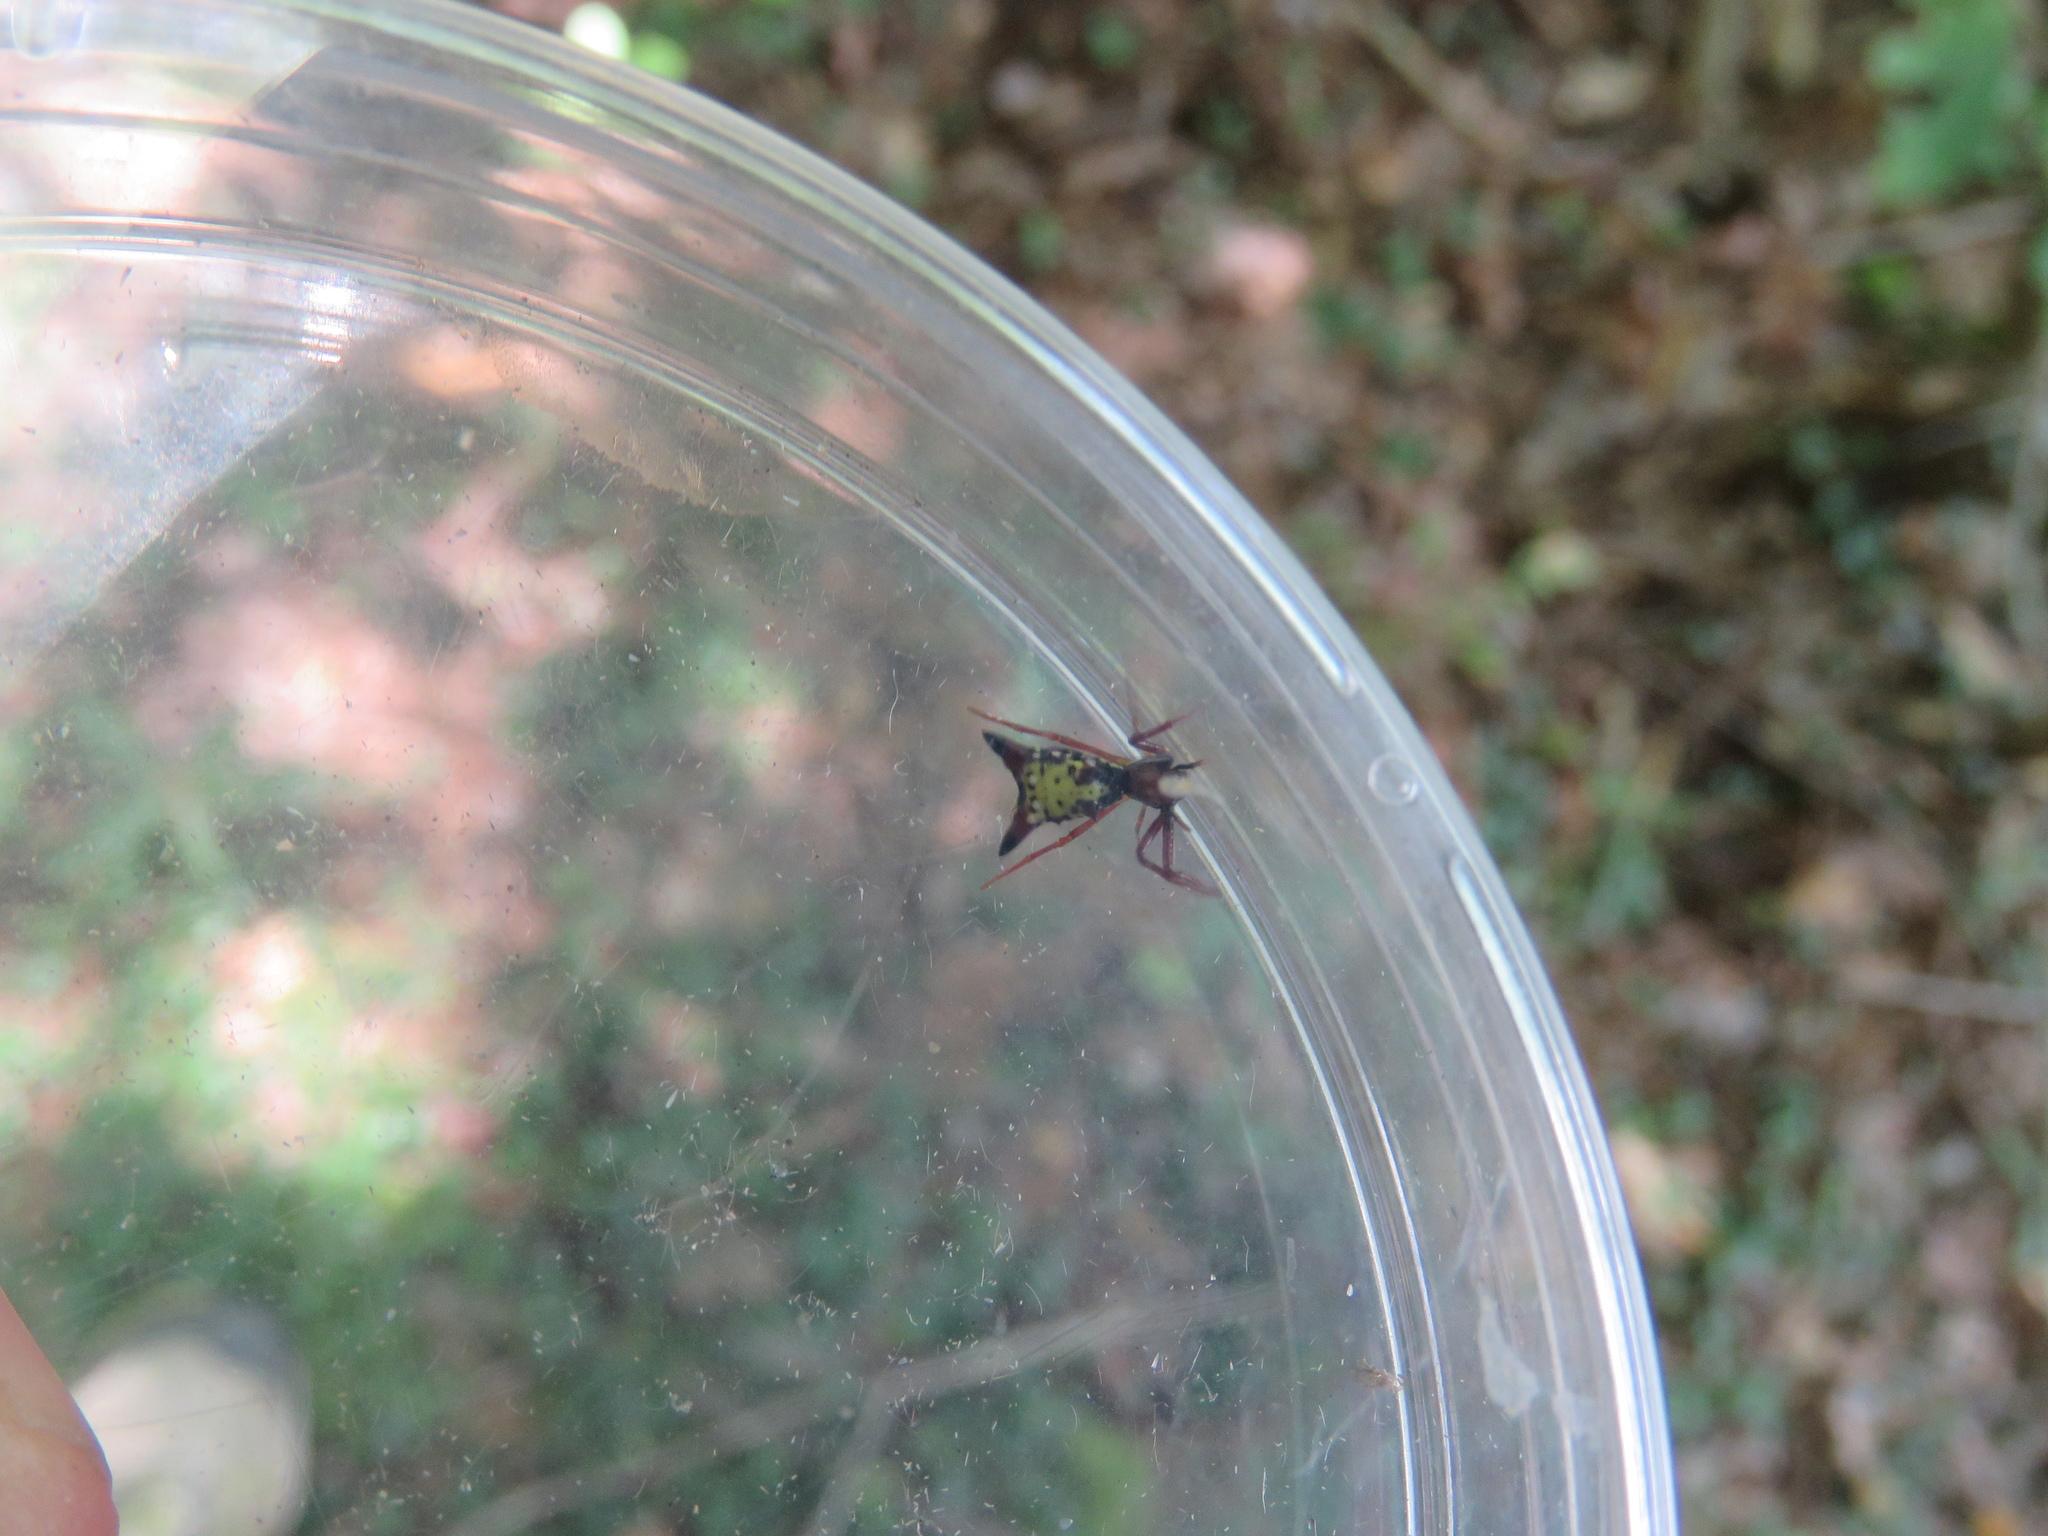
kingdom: Animalia
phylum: Arthropoda
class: Arachnida
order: Araneae
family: Araneidae
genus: Micrathena
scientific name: Micrathena sagittata
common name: Orb weavers
